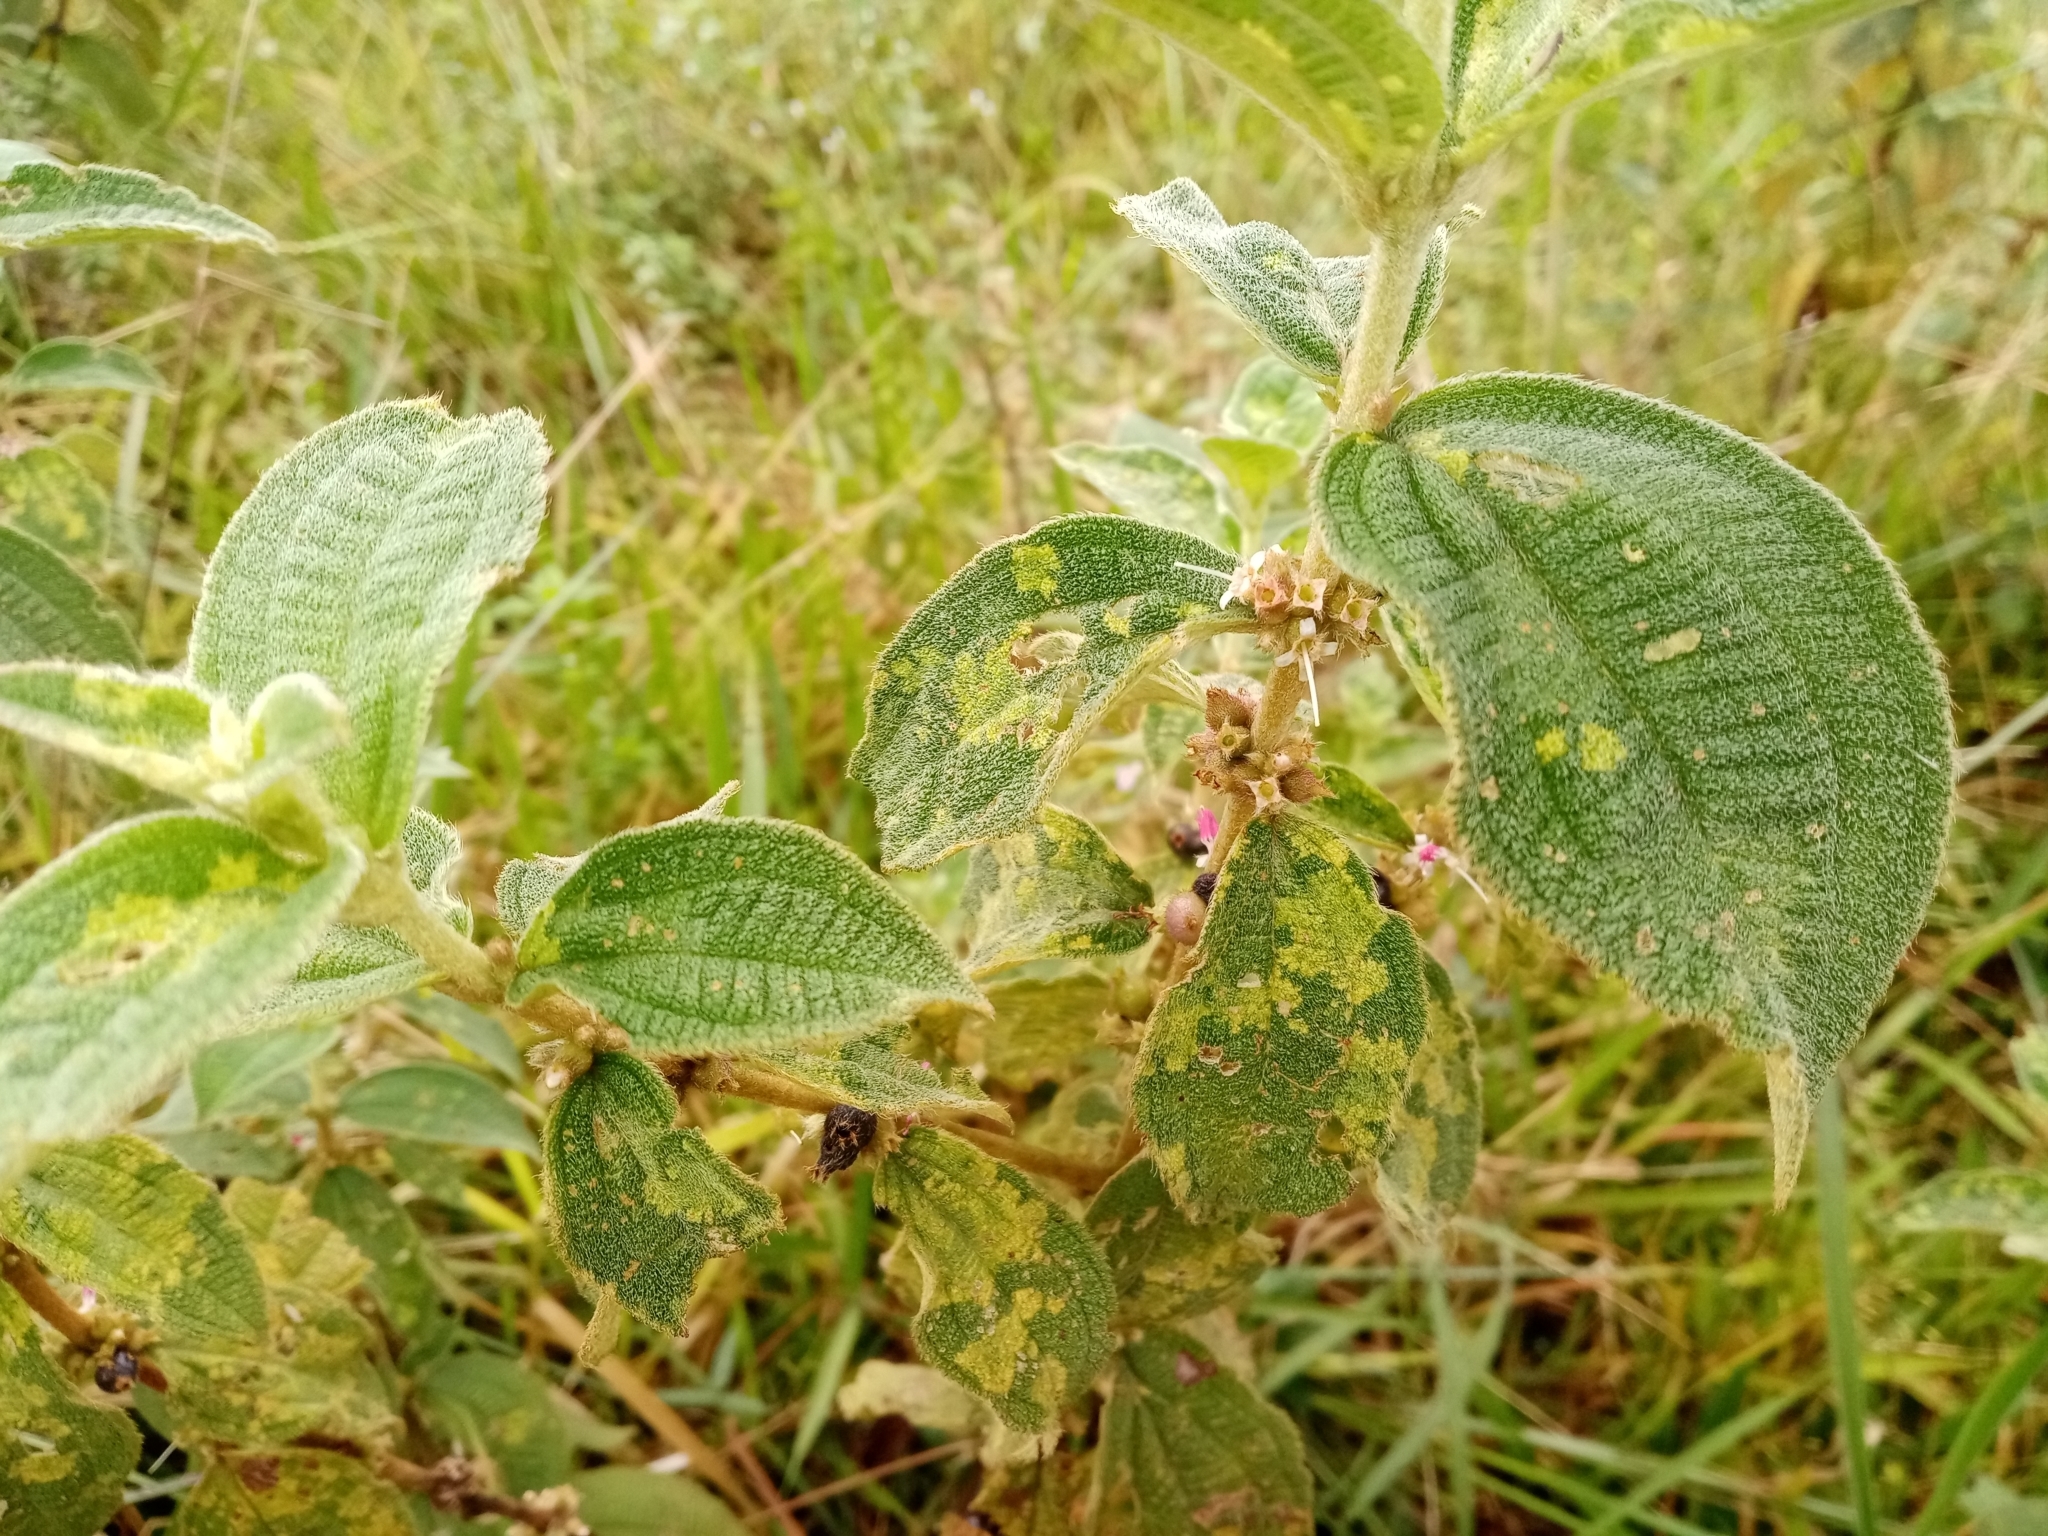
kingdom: Plantae
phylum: Tracheophyta
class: Magnoliopsida
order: Myrtales
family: Melastomataceae
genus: Miconia
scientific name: Miconia crenata
